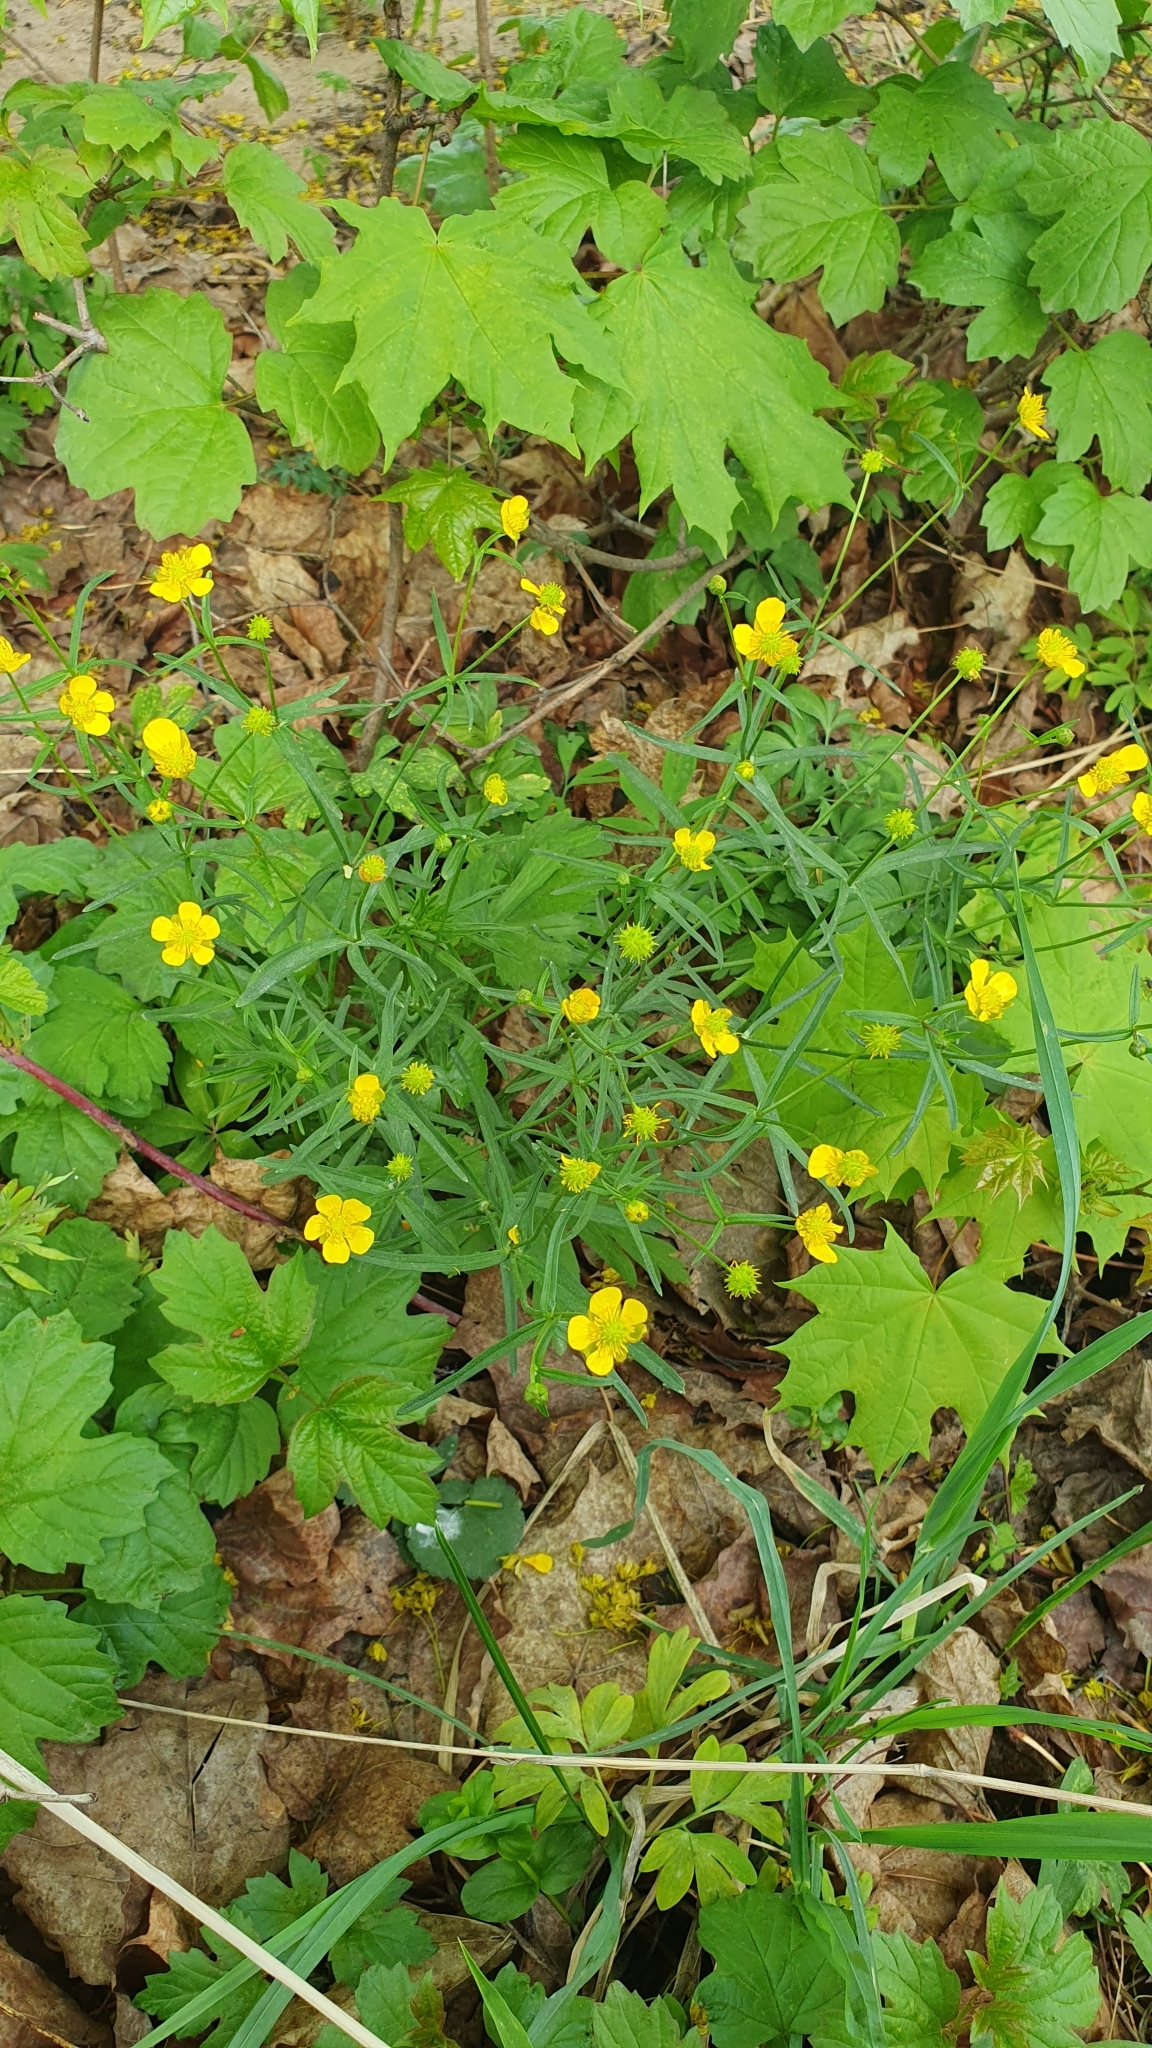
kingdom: Plantae
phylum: Tracheophyta
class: Magnoliopsida
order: Ranunculales
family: Ranunculaceae
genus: Ranunculus
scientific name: Ranunculus auricomus
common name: Goldilocks buttercup
